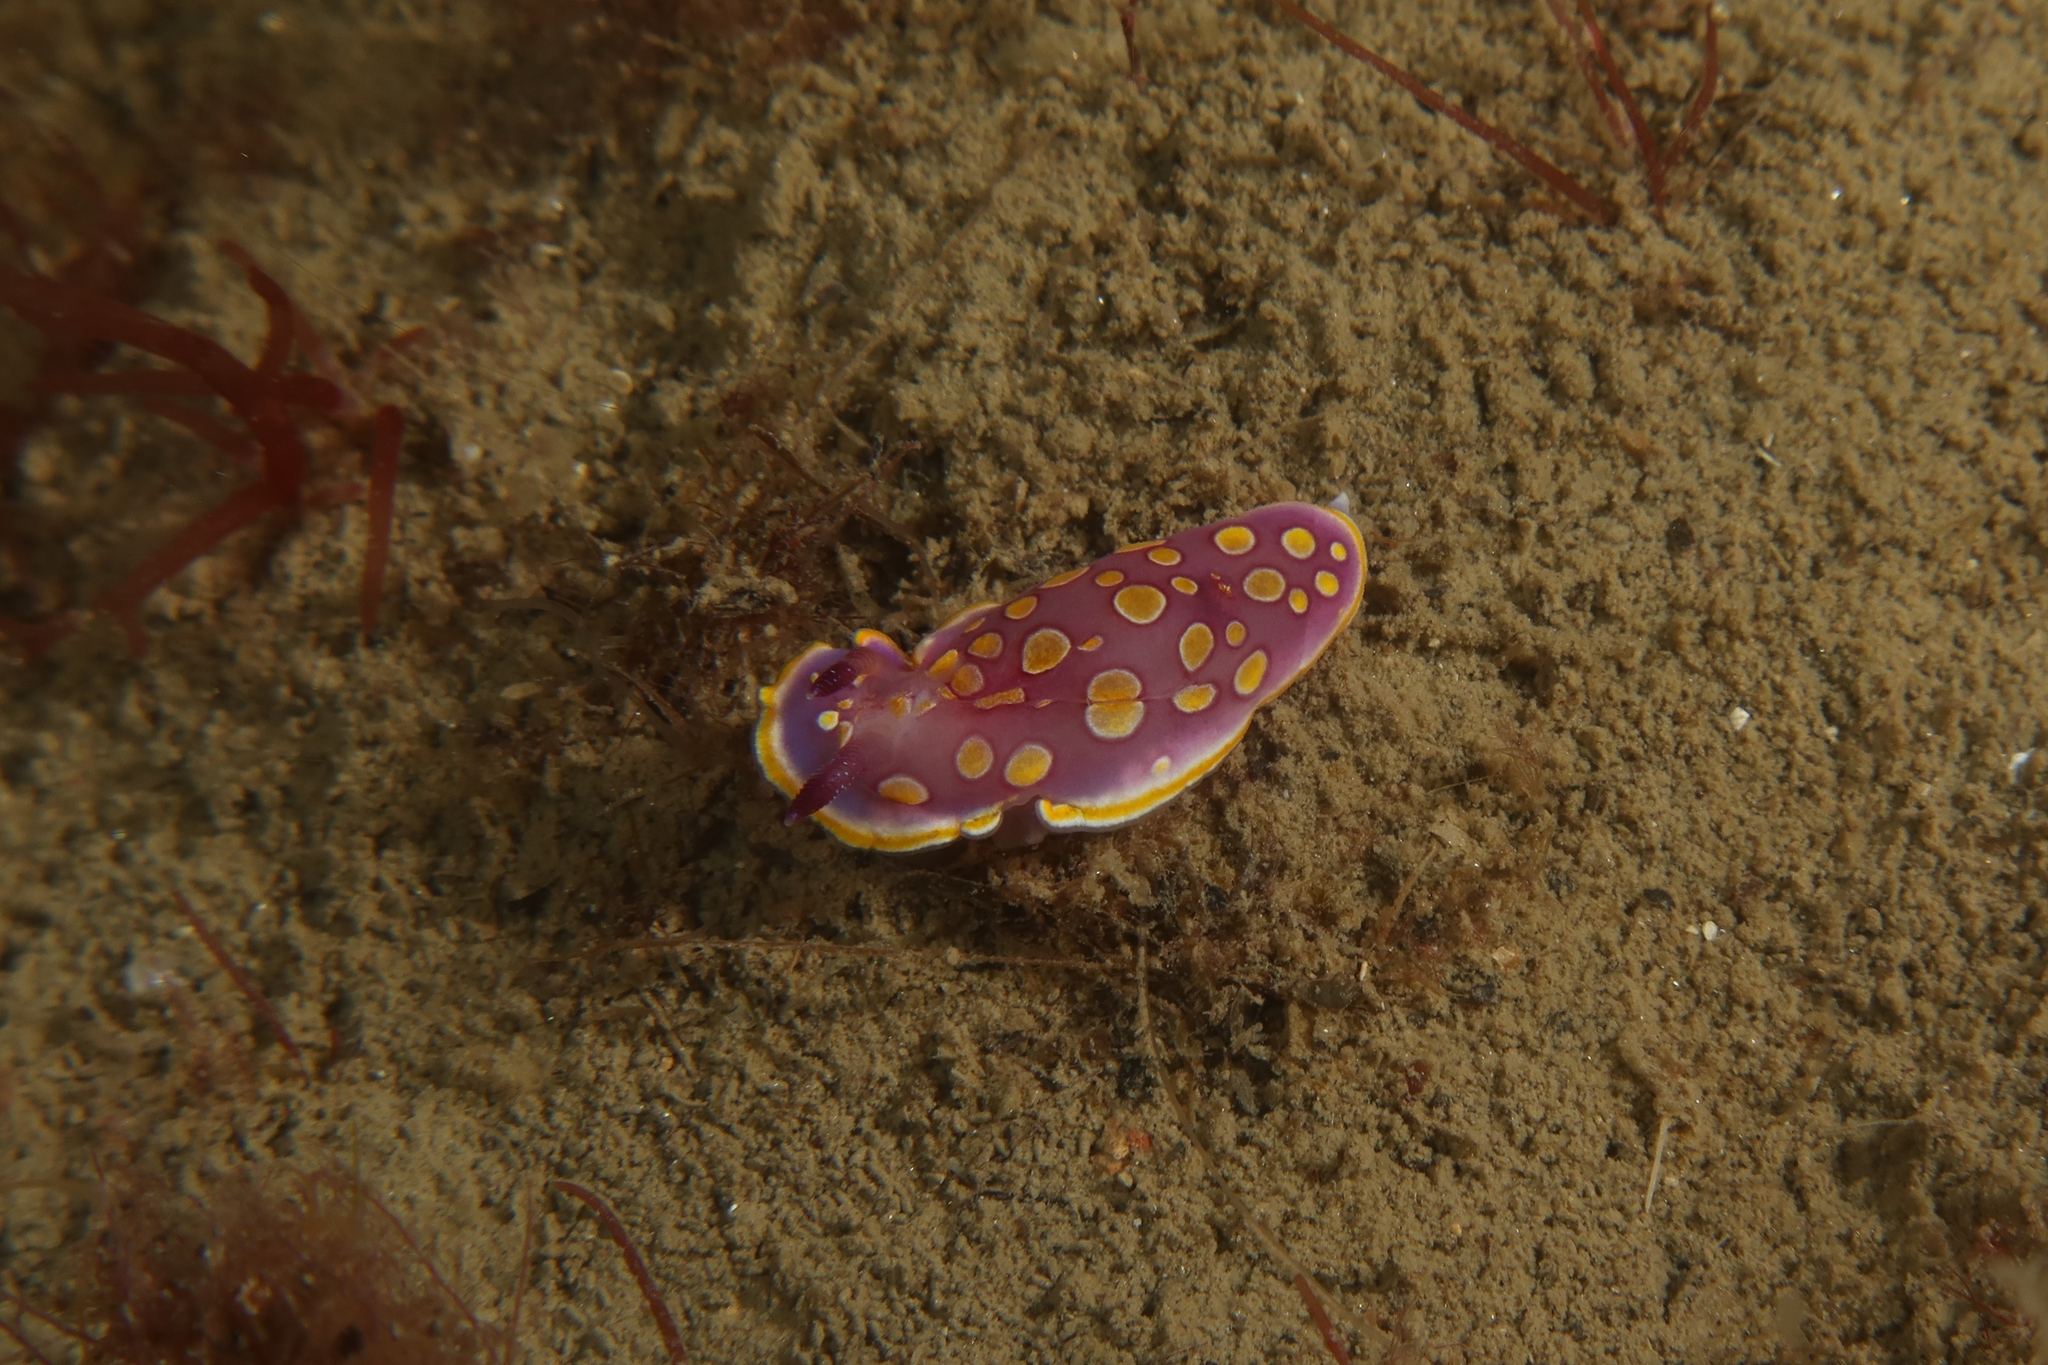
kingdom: Animalia
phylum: Mollusca
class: Gastropoda
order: Nudibranchia
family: Chromodorididae
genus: Felimida
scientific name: Felimida luteorosea
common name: Yellow-dotted doris
